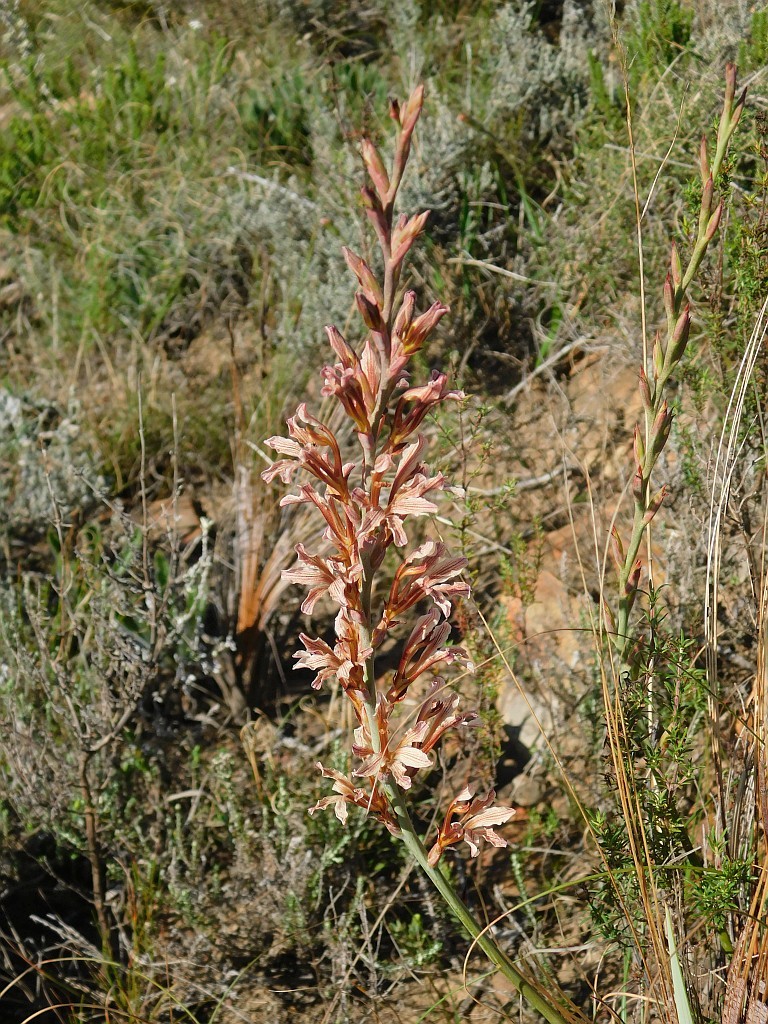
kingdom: Plantae
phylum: Tracheophyta
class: Liliopsida
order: Asparagales
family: Iridaceae
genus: Tritoniopsis
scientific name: Tritoniopsis elongata
